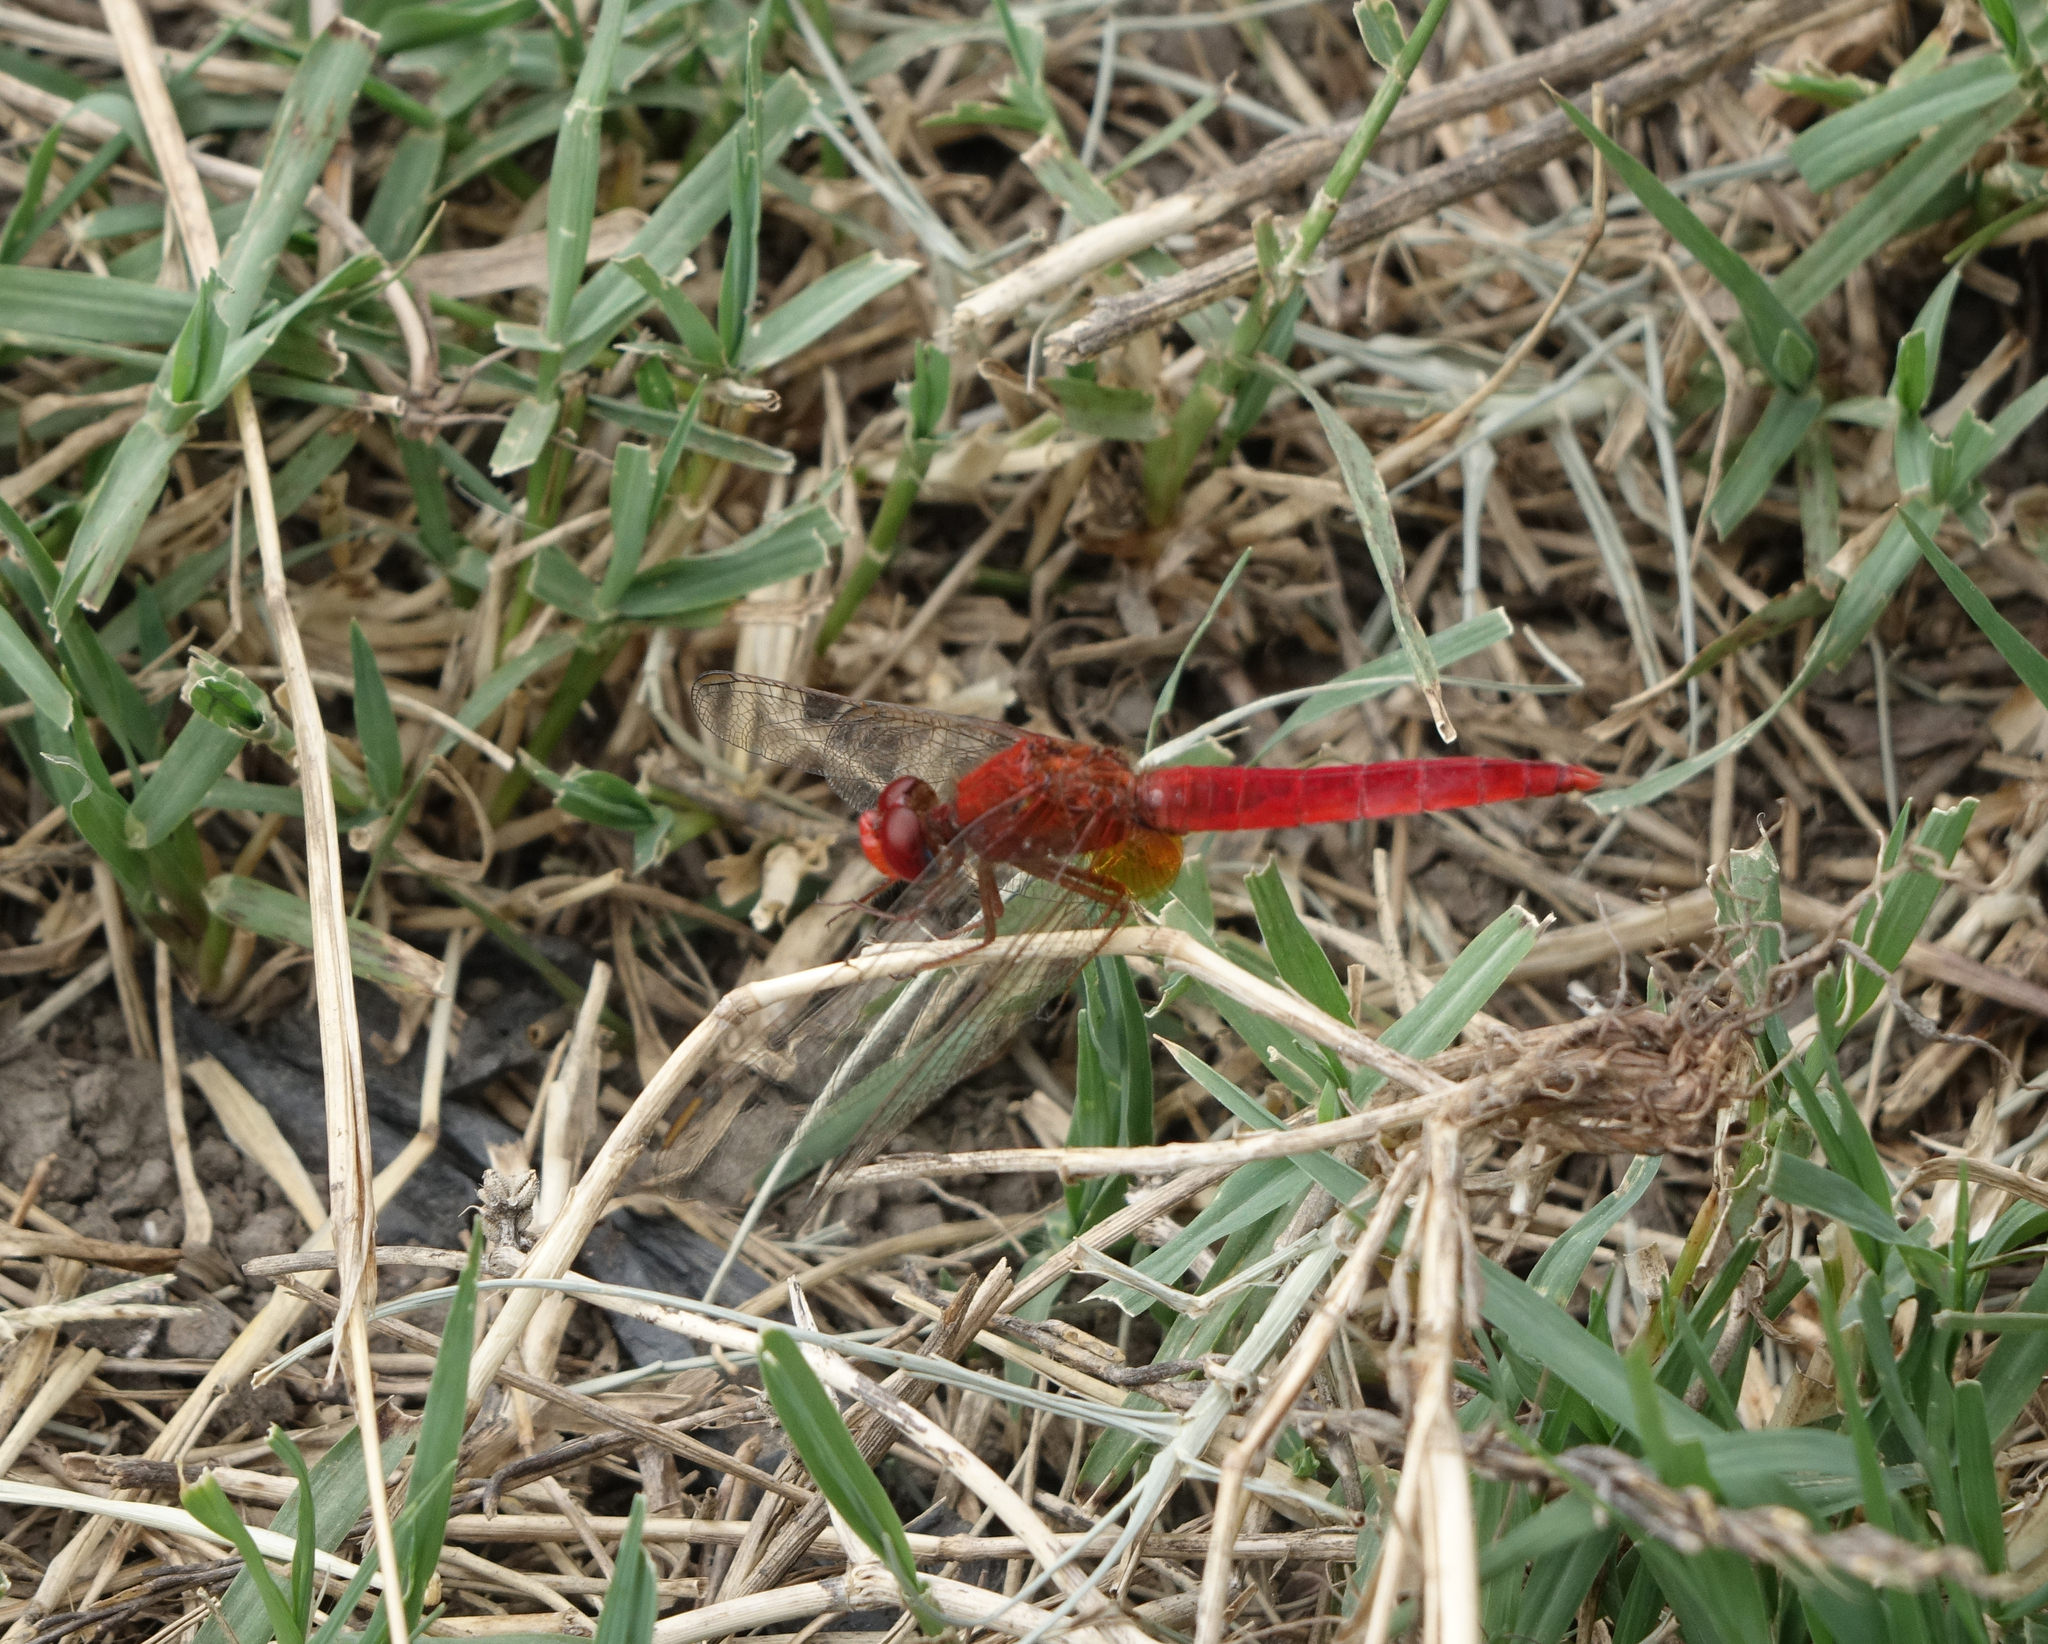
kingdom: Animalia
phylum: Arthropoda
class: Insecta
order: Odonata
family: Libellulidae
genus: Crocothemis
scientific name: Crocothemis erythraea
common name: Scarlet dragonfly
